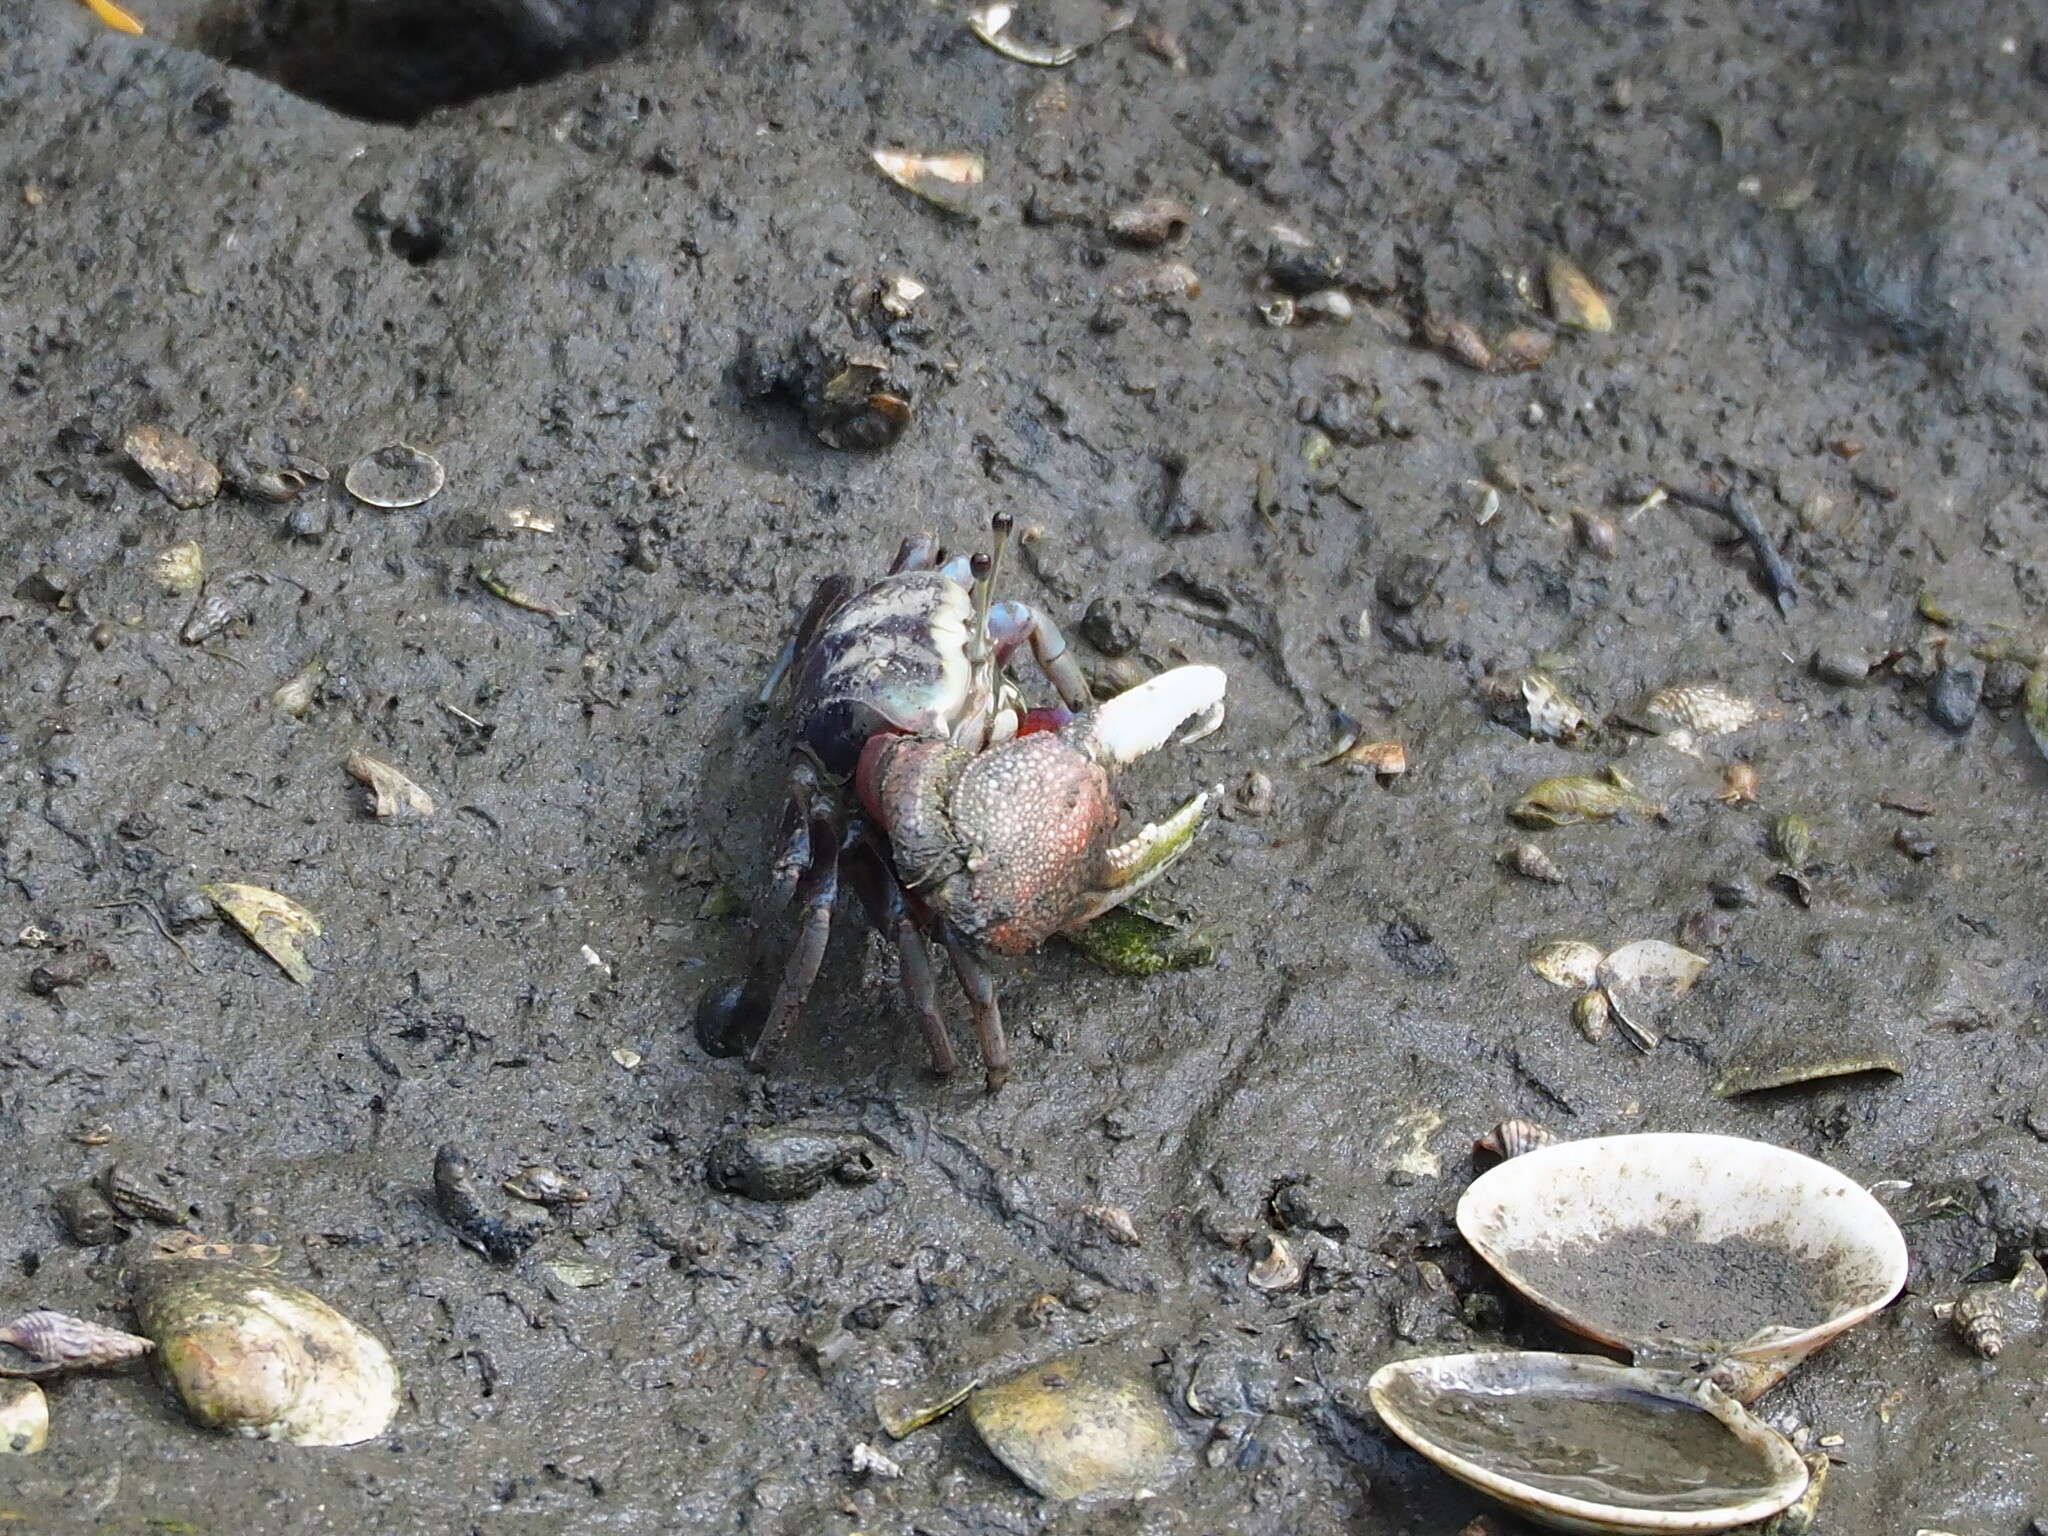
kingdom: Animalia
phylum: Arthropoda
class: Malacostraca
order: Decapoda
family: Ocypodidae
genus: Tubuca
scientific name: Tubuca arcuata
